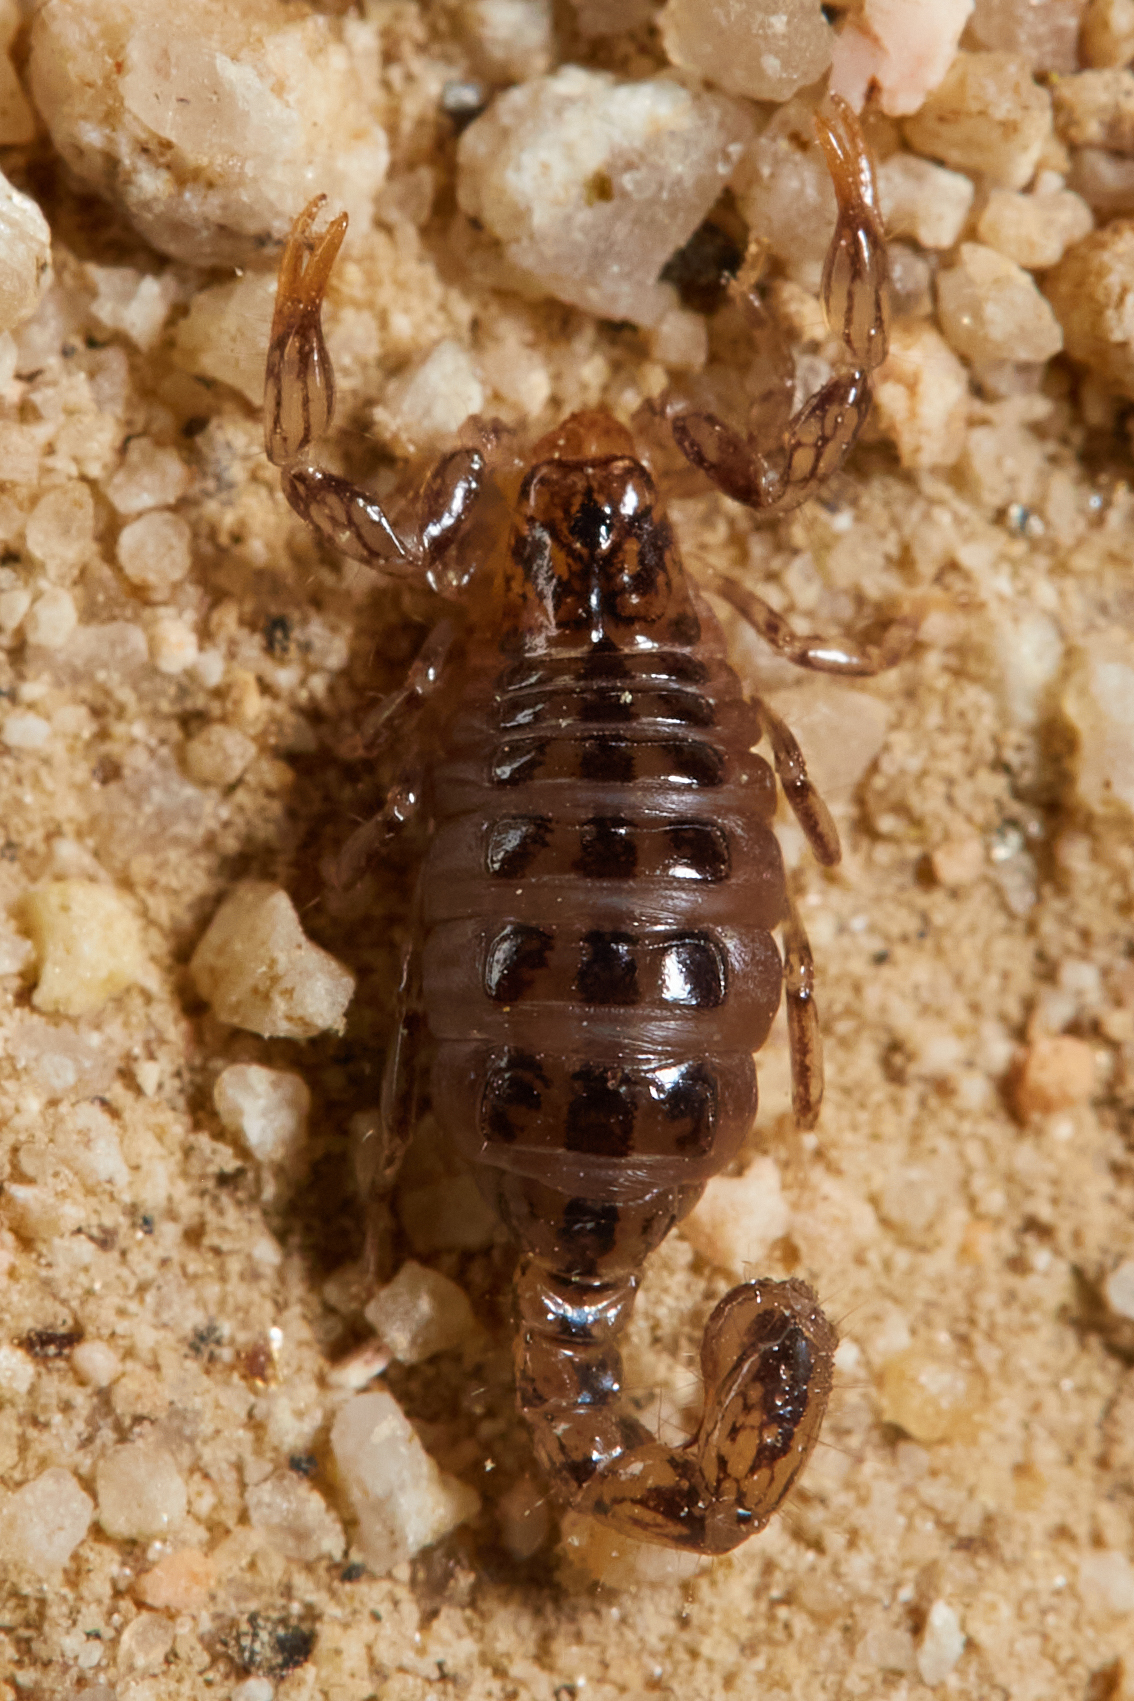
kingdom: Animalia
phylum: Arthropoda
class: Arachnida
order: Scorpiones
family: Superstitioniidae
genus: Superstitionia
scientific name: Superstitionia donensis
